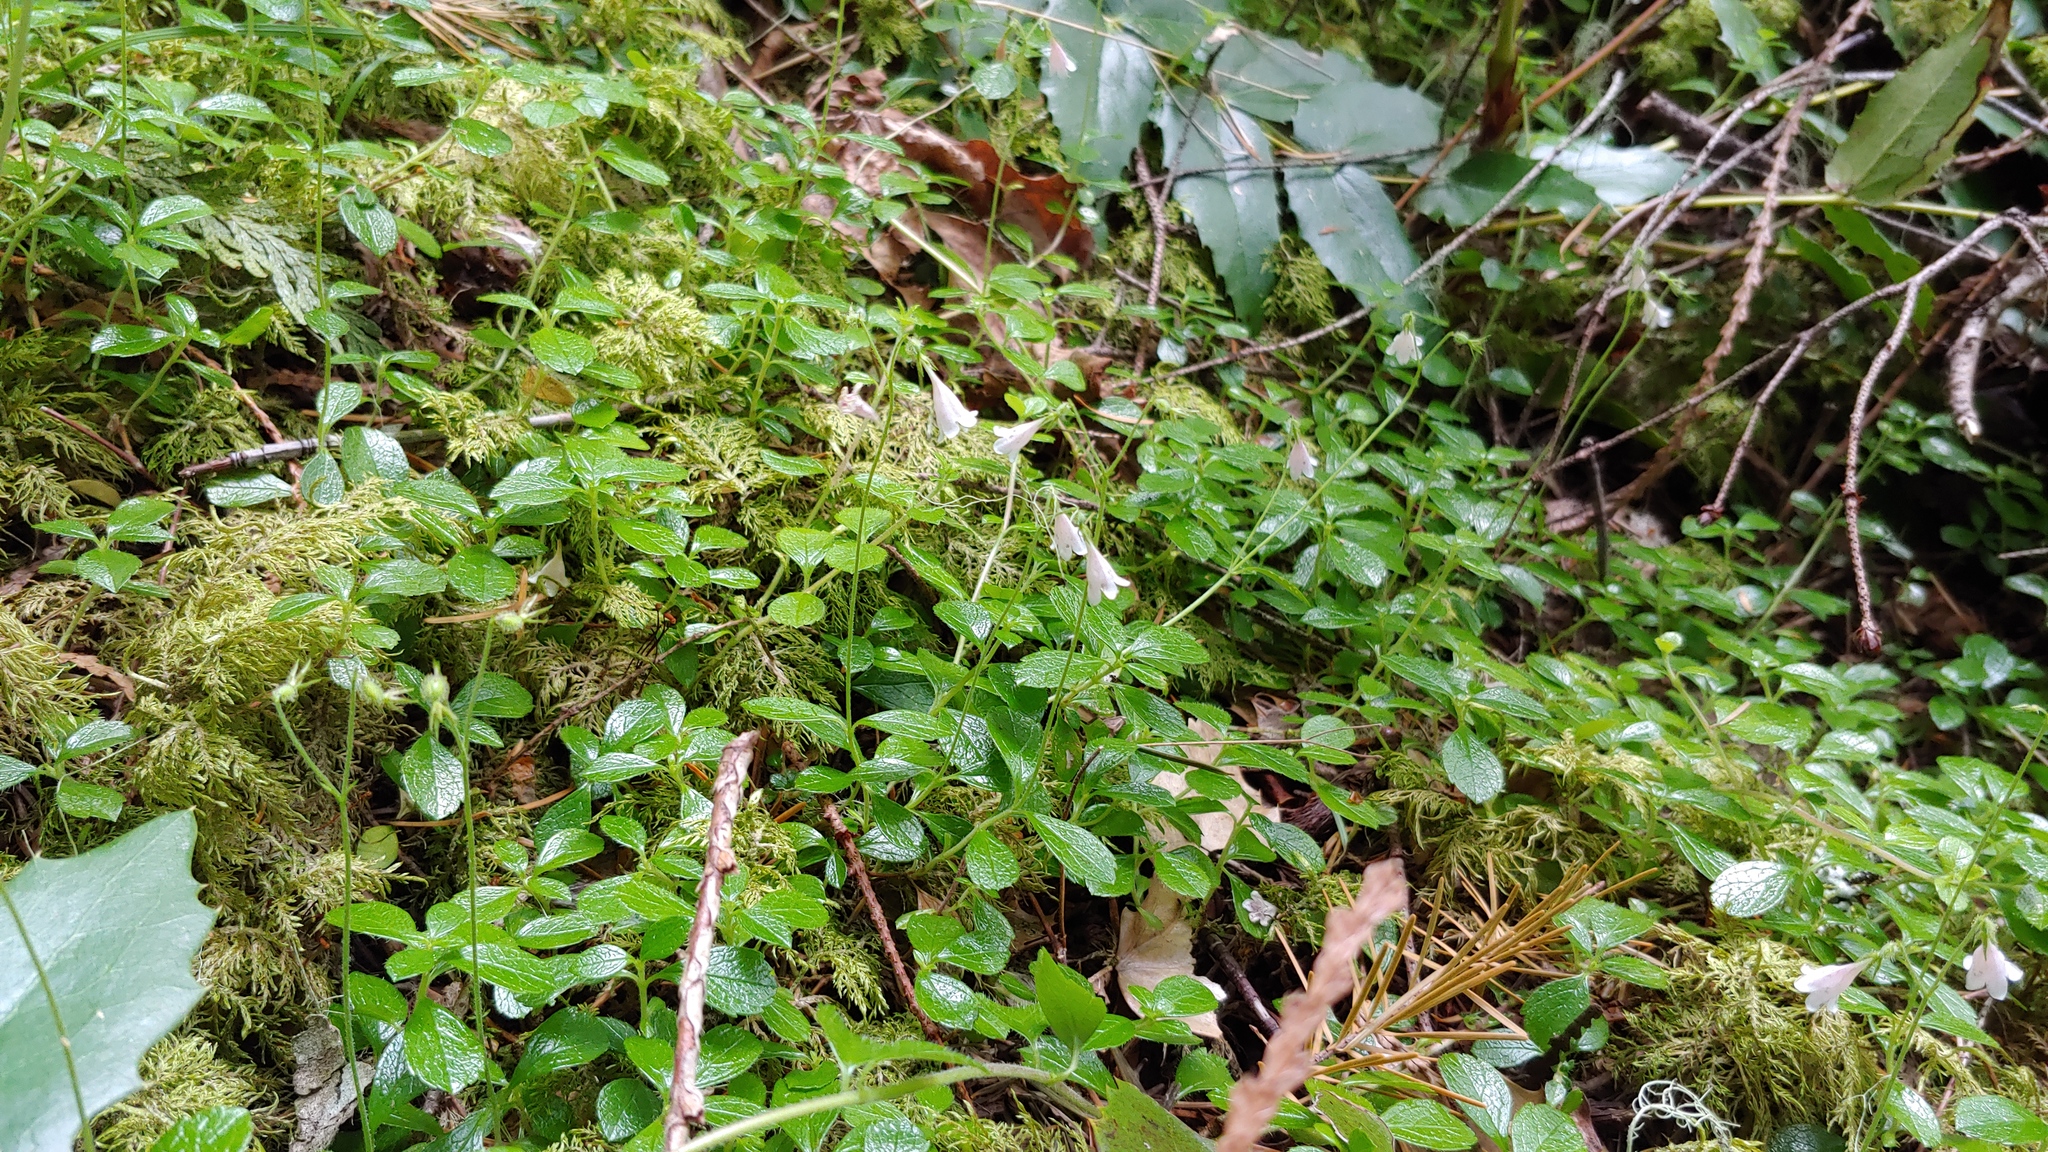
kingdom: Plantae
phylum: Tracheophyta
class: Magnoliopsida
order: Dipsacales
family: Caprifoliaceae
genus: Linnaea
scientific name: Linnaea borealis
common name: Twinflower
